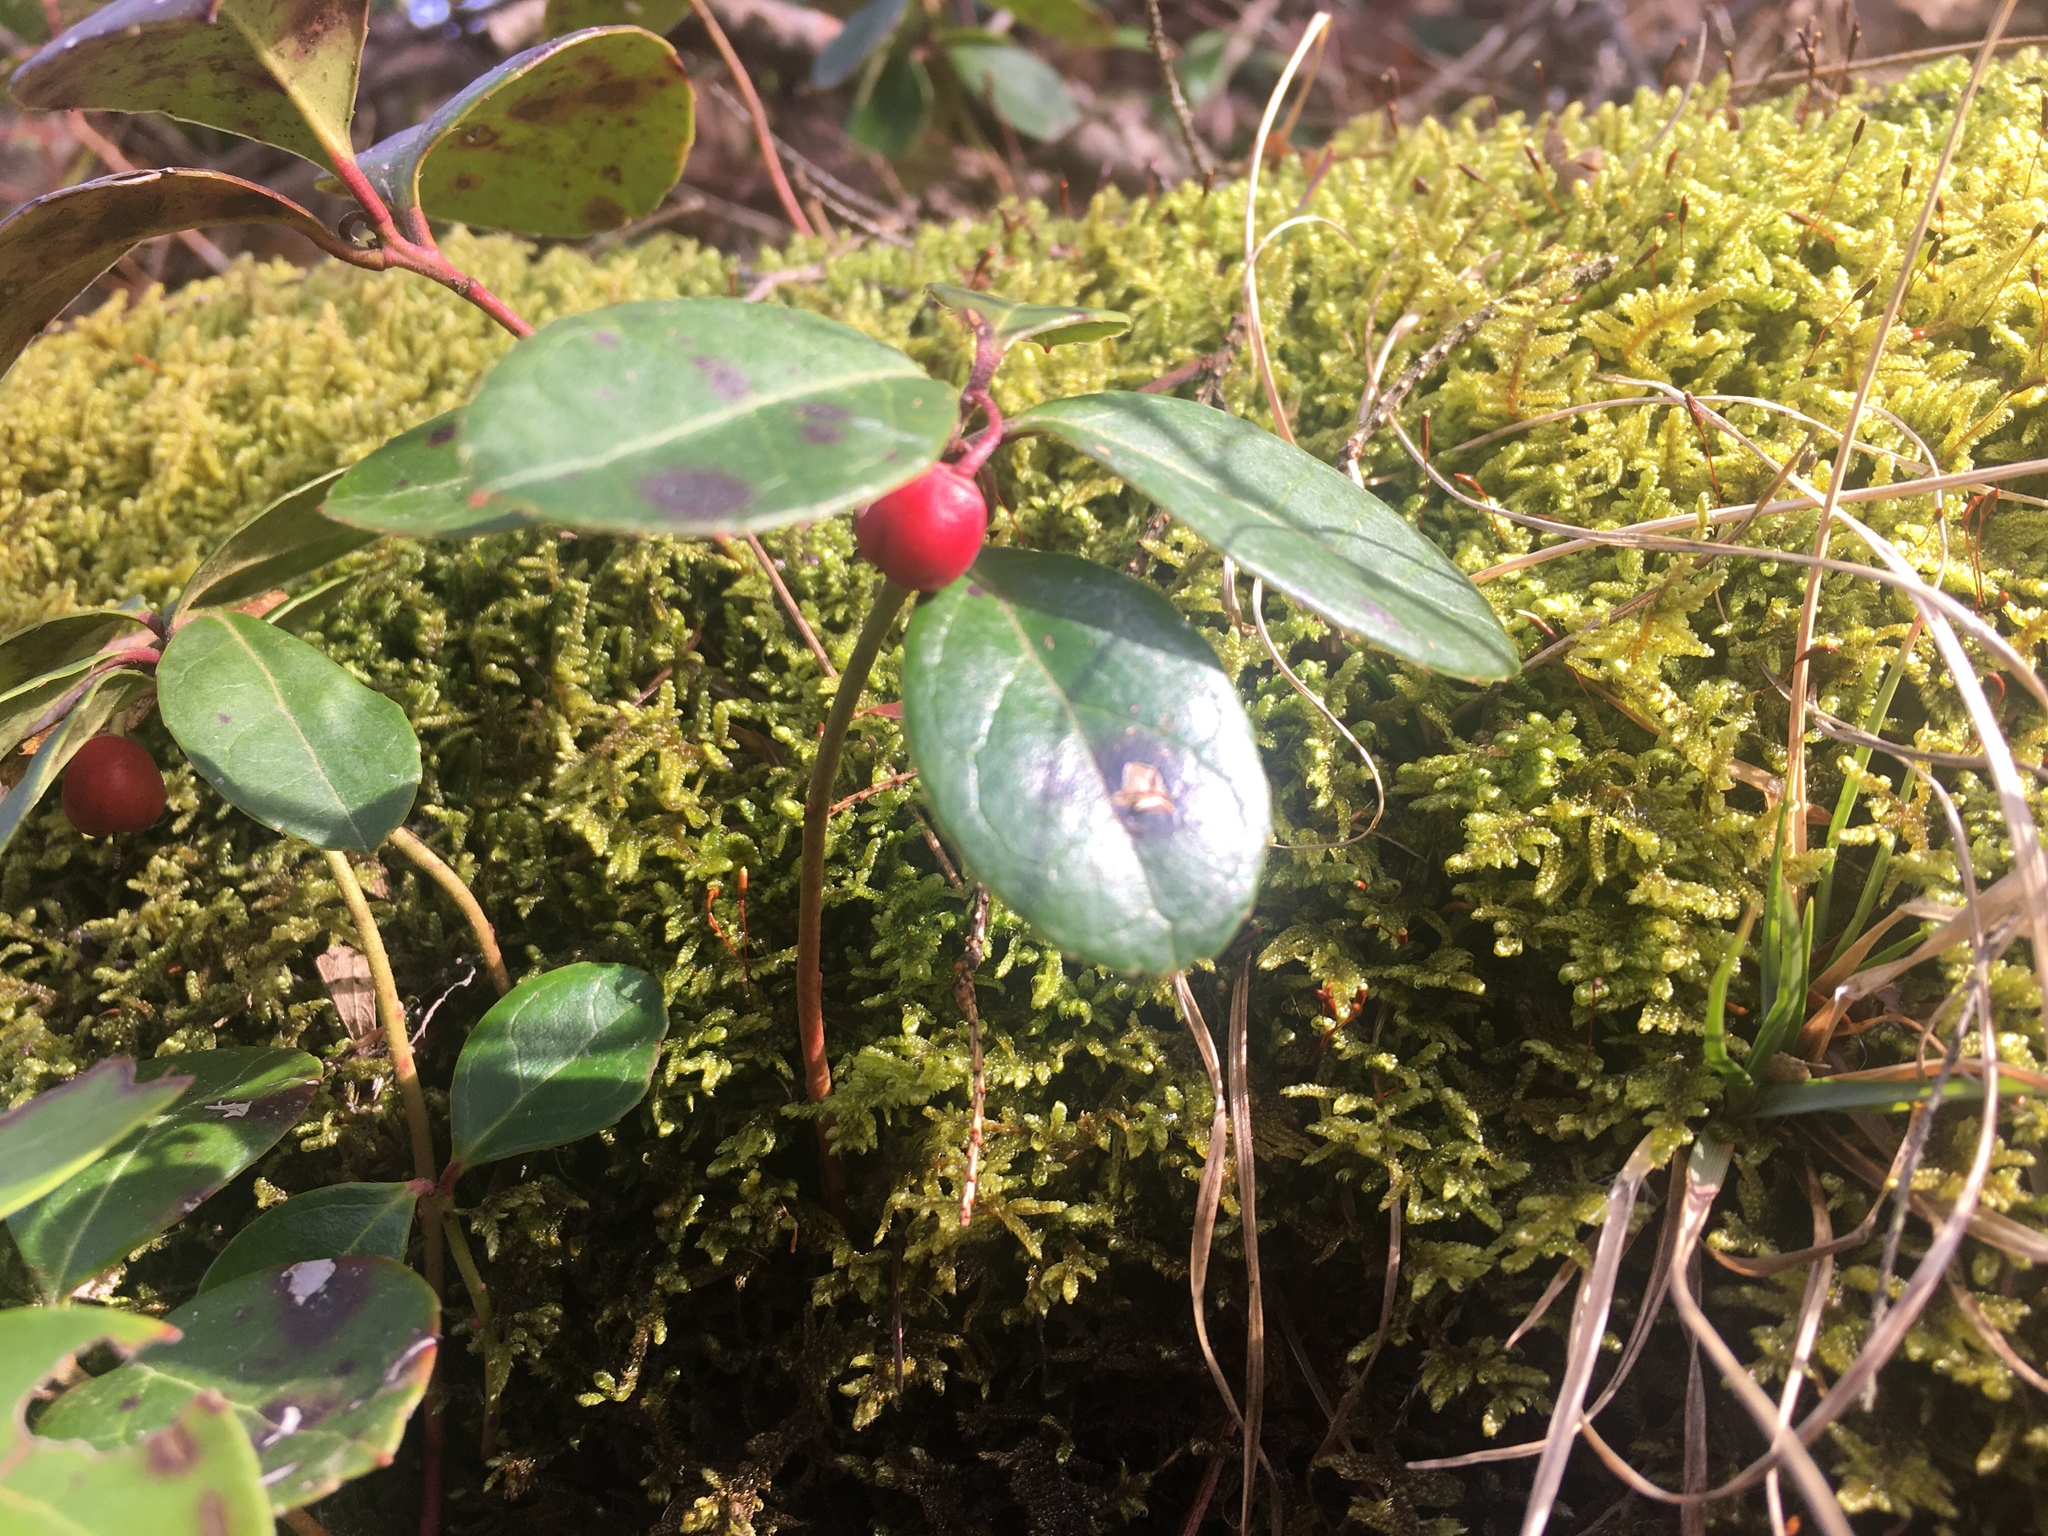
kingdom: Plantae
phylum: Tracheophyta
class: Magnoliopsida
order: Ericales
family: Ericaceae
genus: Gaultheria
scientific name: Gaultheria procumbens
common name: Checkerberry
